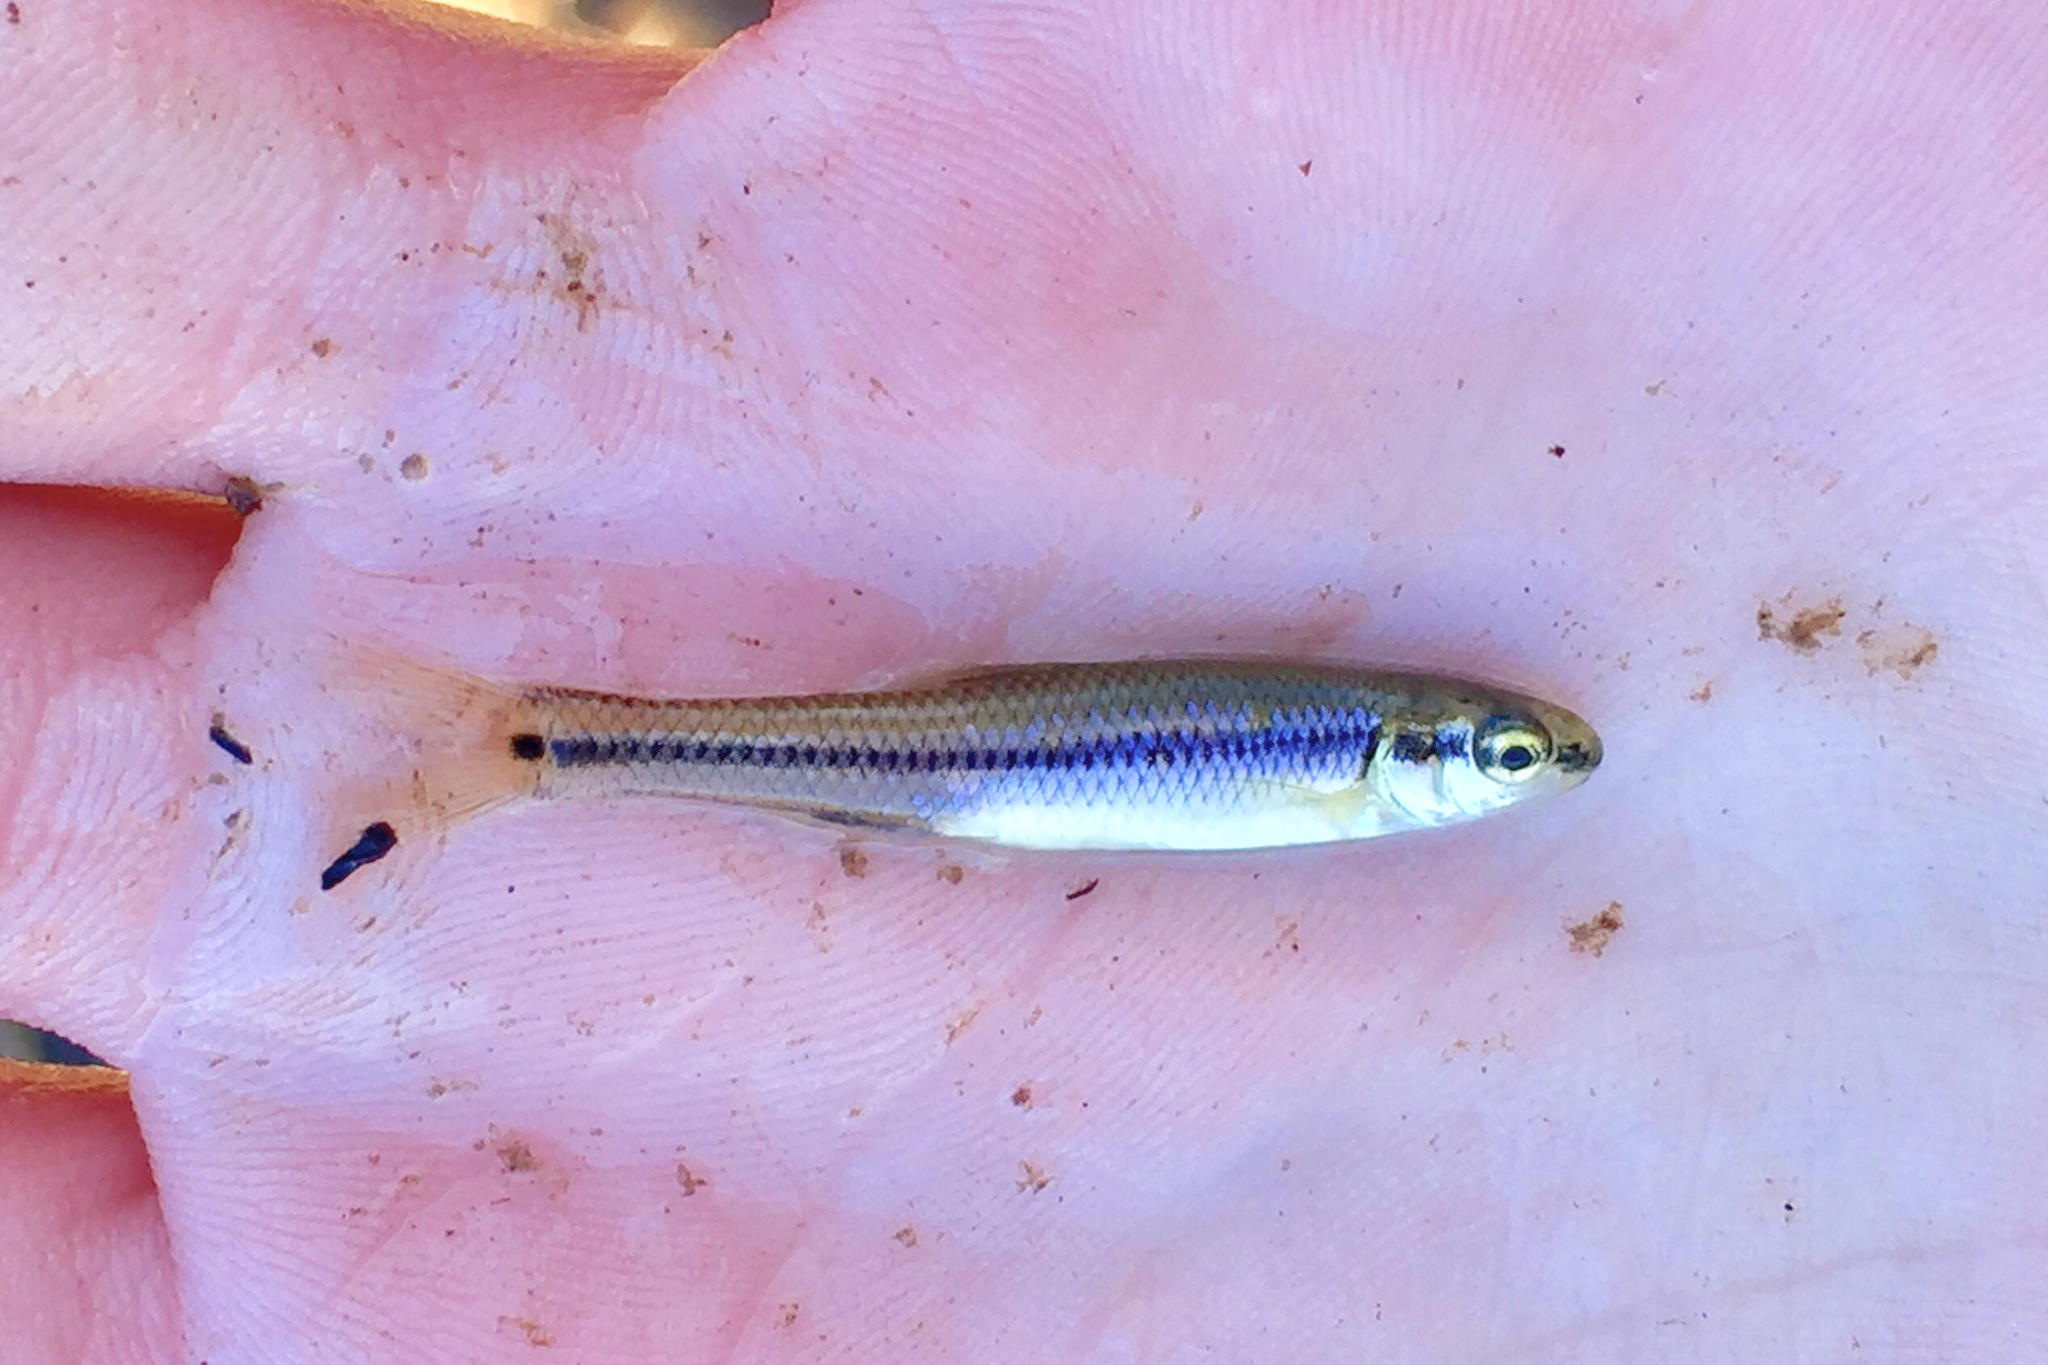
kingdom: Animalia
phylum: Chordata
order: Cypriniformes
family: Cyprinidae
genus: Pimephales
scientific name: Pimephales notatus
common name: Bluntnose minnow
